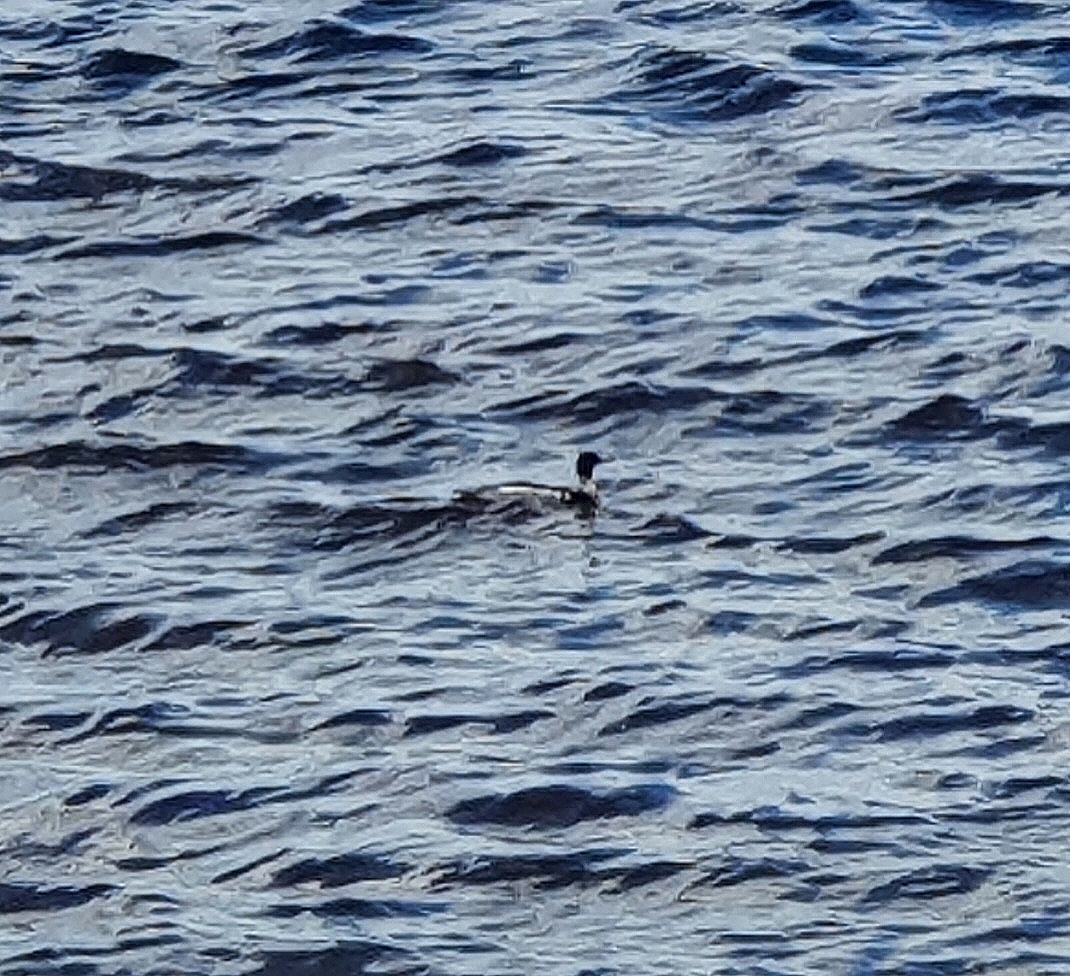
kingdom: Animalia
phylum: Chordata
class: Aves
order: Anseriformes
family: Anatidae
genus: Mergus
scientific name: Mergus serrator
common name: Red-breasted merganser
